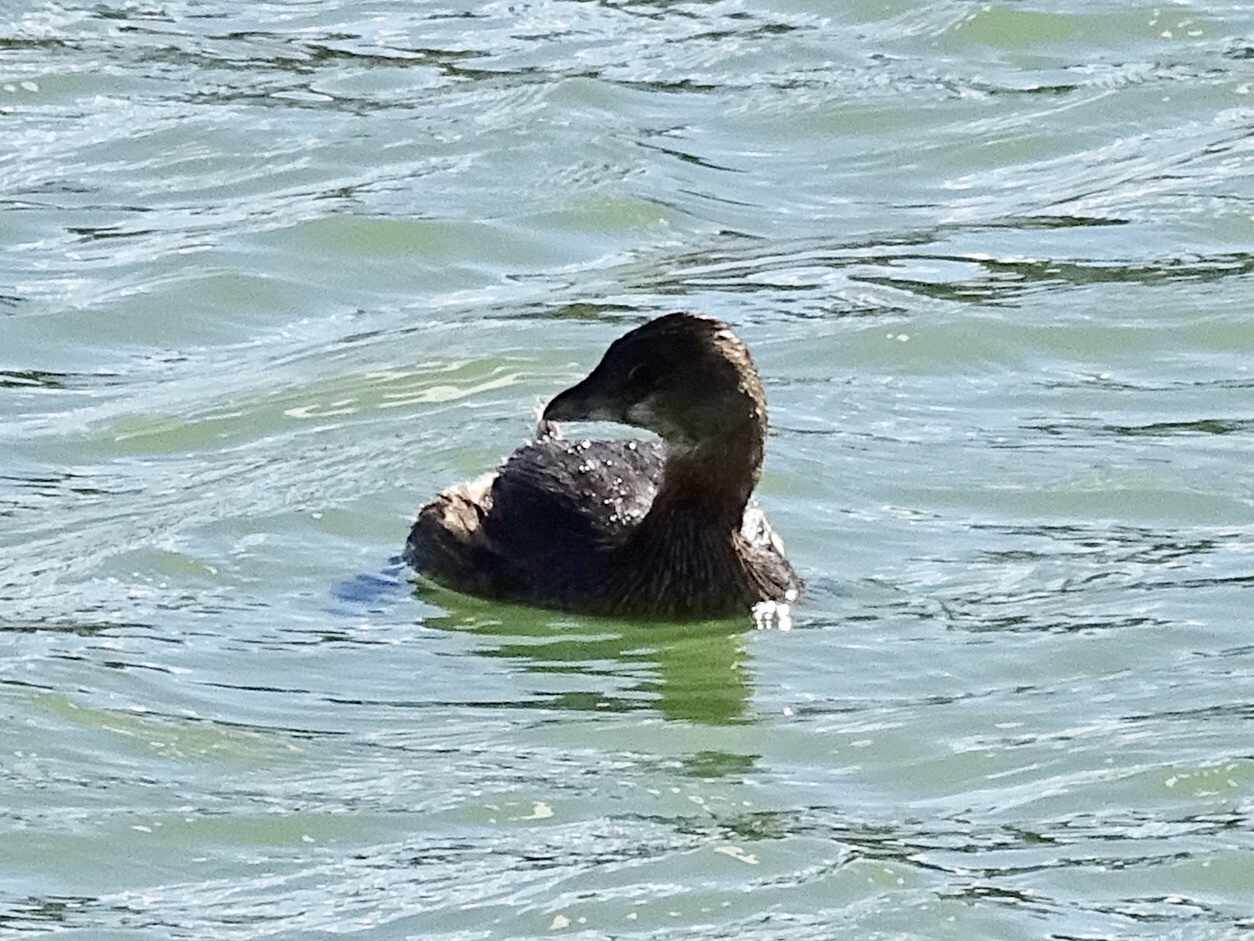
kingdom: Animalia
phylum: Chordata
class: Aves
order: Podicipediformes
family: Podicipedidae
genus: Podilymbus
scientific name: Podilymbus podiceps
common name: Pied-billed grebe
